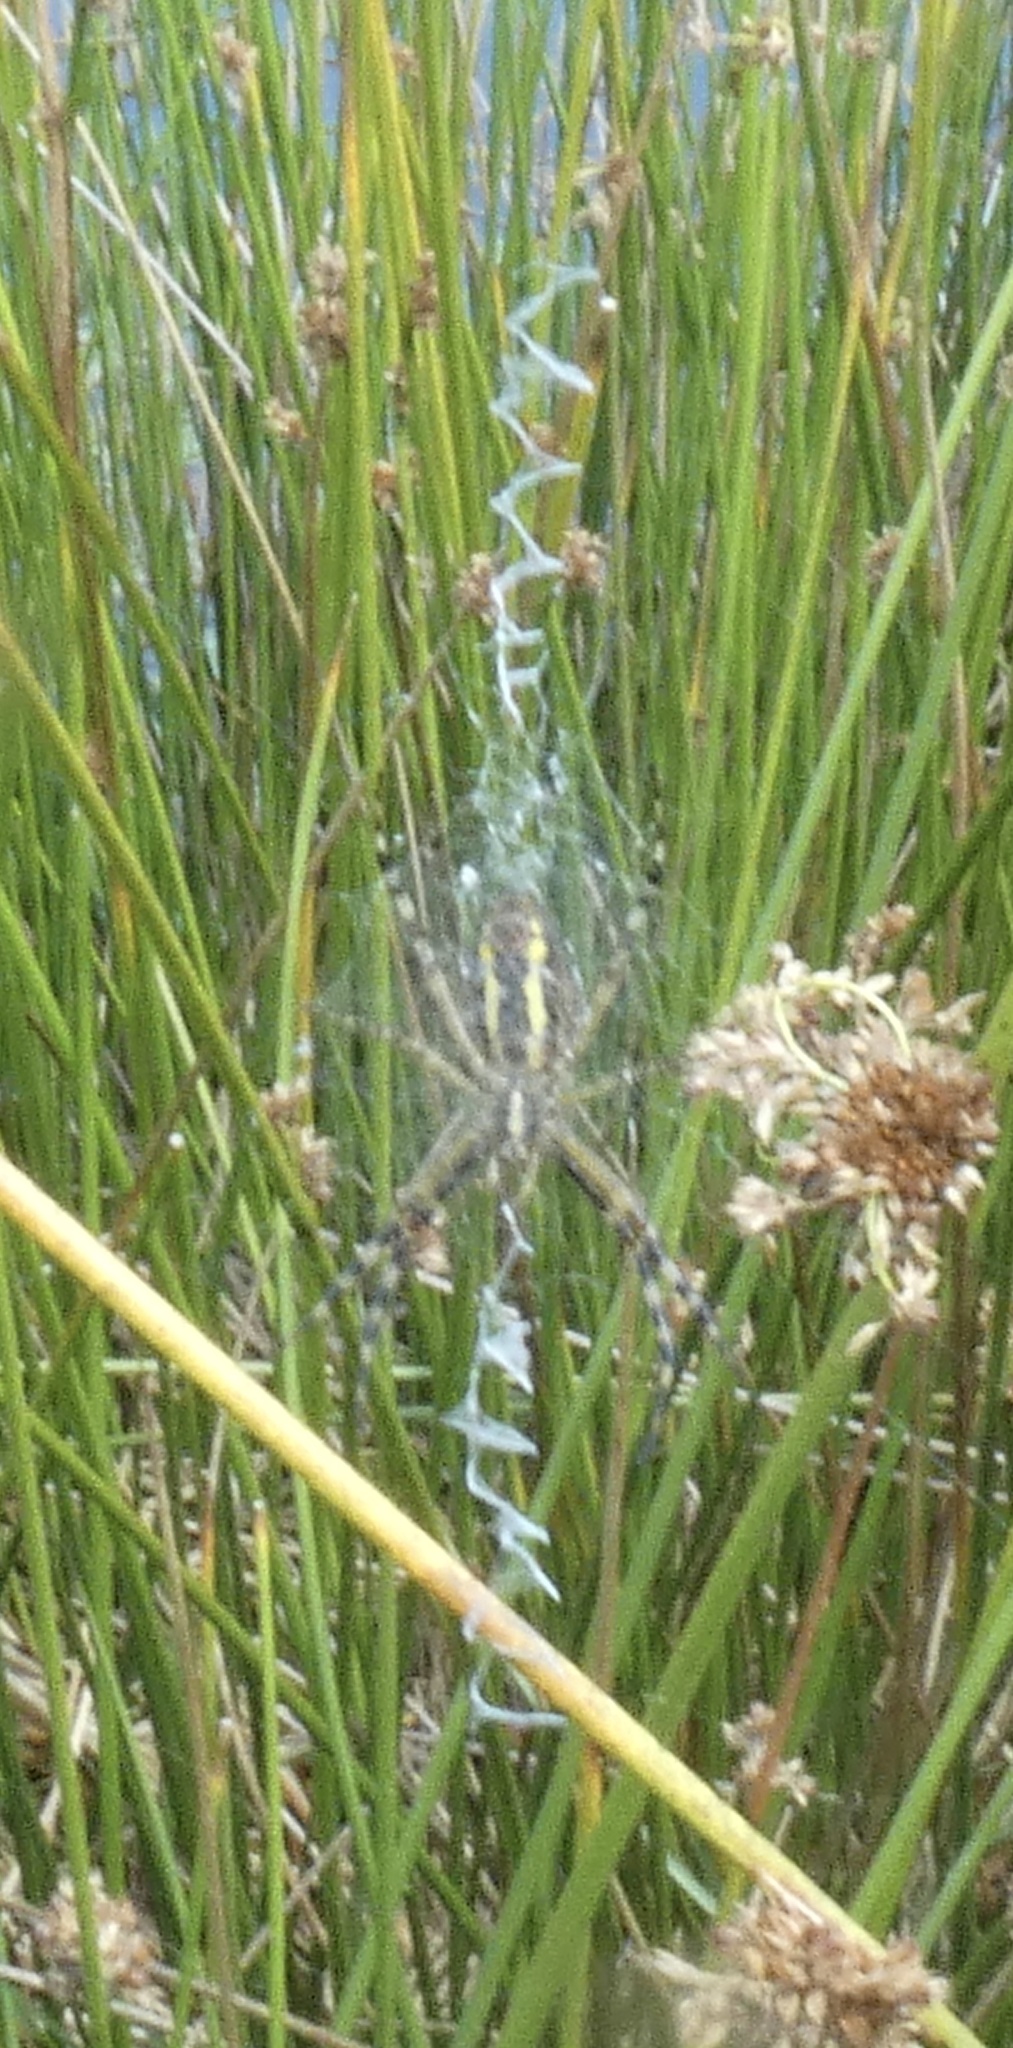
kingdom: Animalia
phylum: Arthropoda
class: Arachnida
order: Araneae
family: Araneidae
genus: Argiope
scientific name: Argiope bruennichi
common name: Wasp spider
